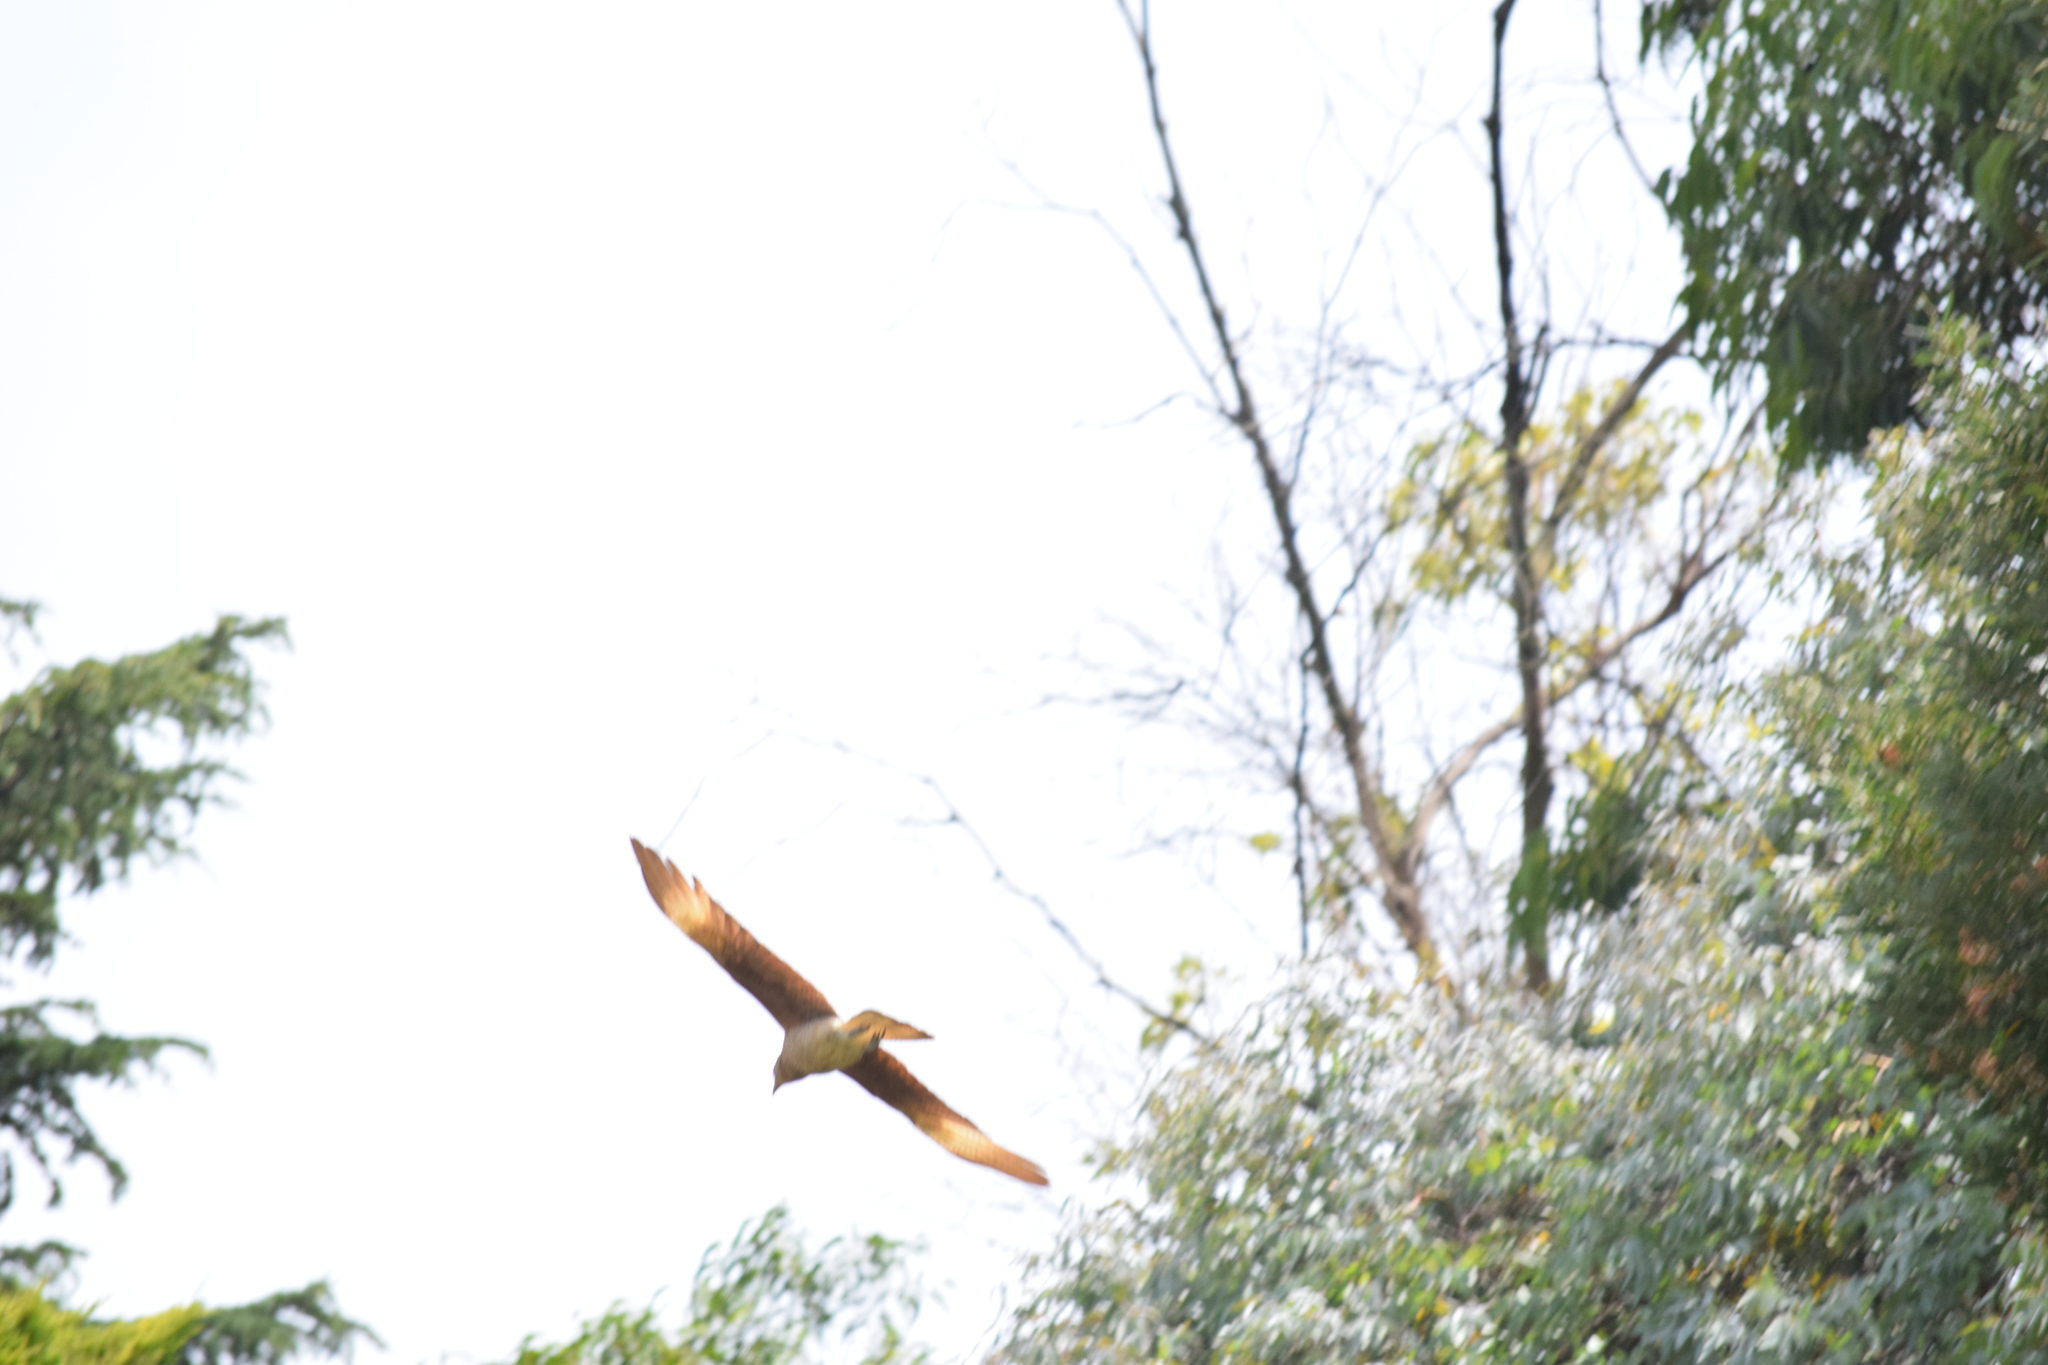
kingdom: Animalia
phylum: Chordata
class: Aves
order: Falconiformes
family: Falconidae
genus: Daptrius
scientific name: Daptrius
